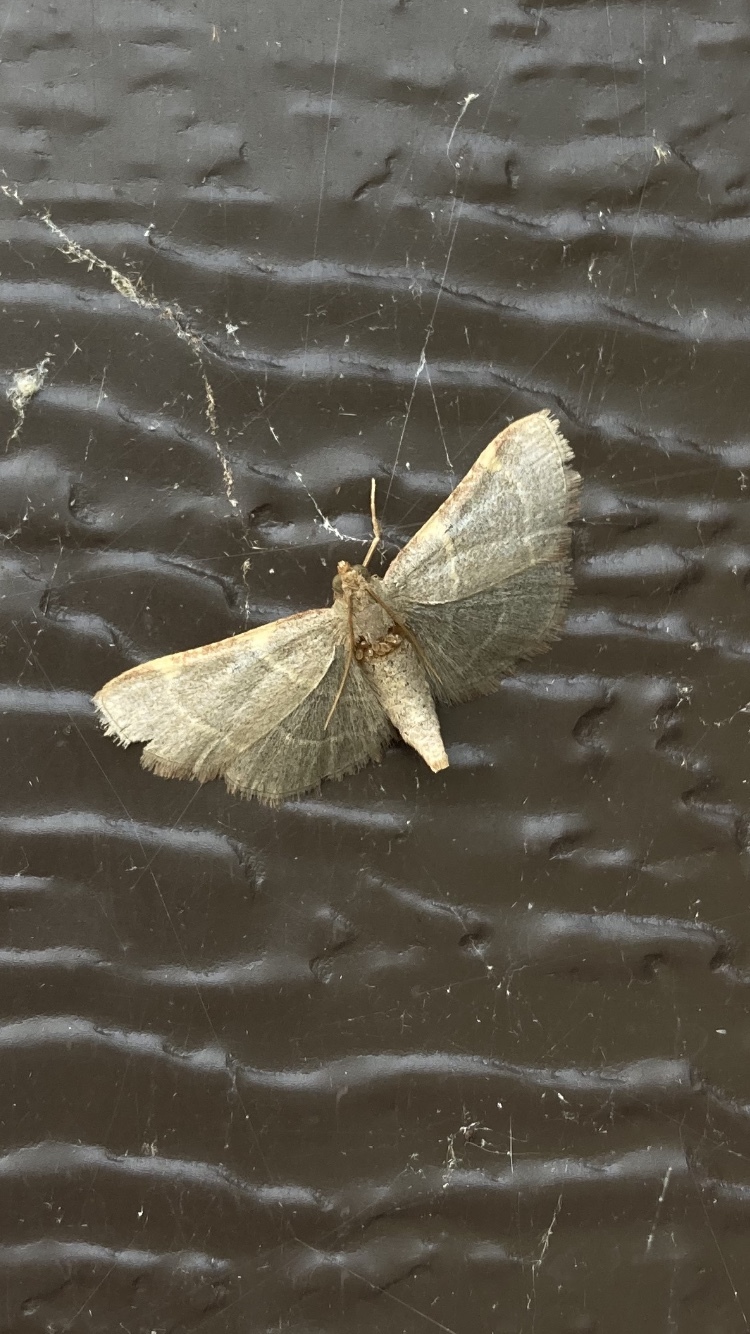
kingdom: Animalia
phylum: Arthropoda
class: Insecta
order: Lepidoptera
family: Pyralidae
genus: Hypsopygia
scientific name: Hypsopygia binodulalis
